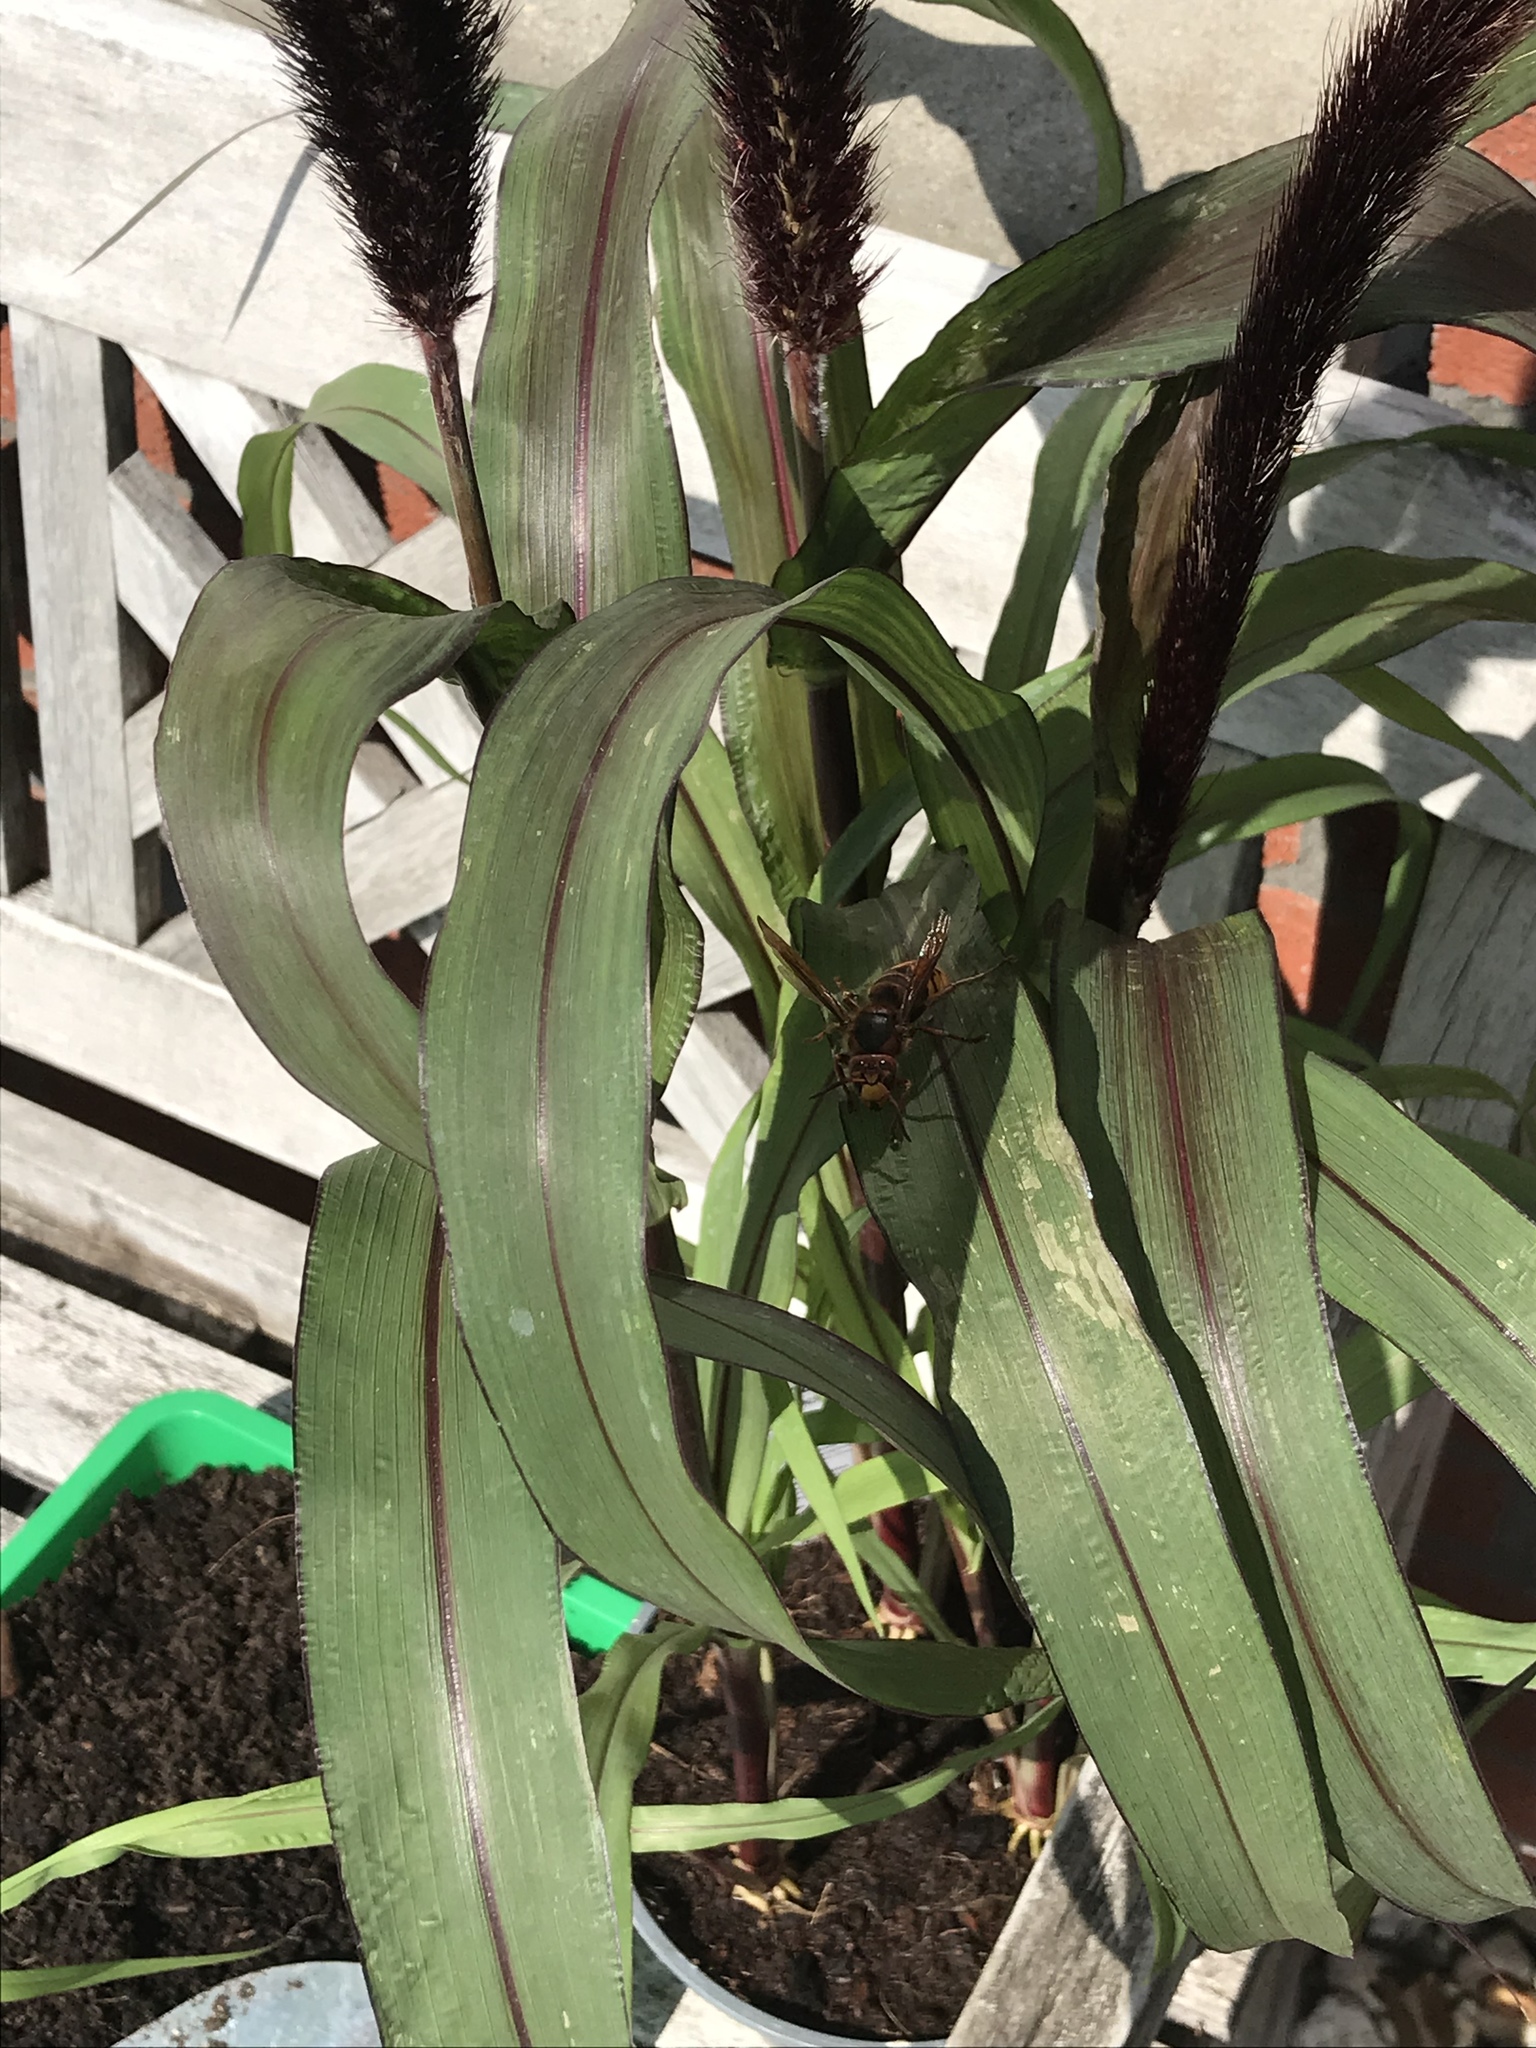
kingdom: Animalia
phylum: Arthropoda
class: Insecta
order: Hymenoptera
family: Vespidae
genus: Vespa
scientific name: Vespa crabro
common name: Hornet
